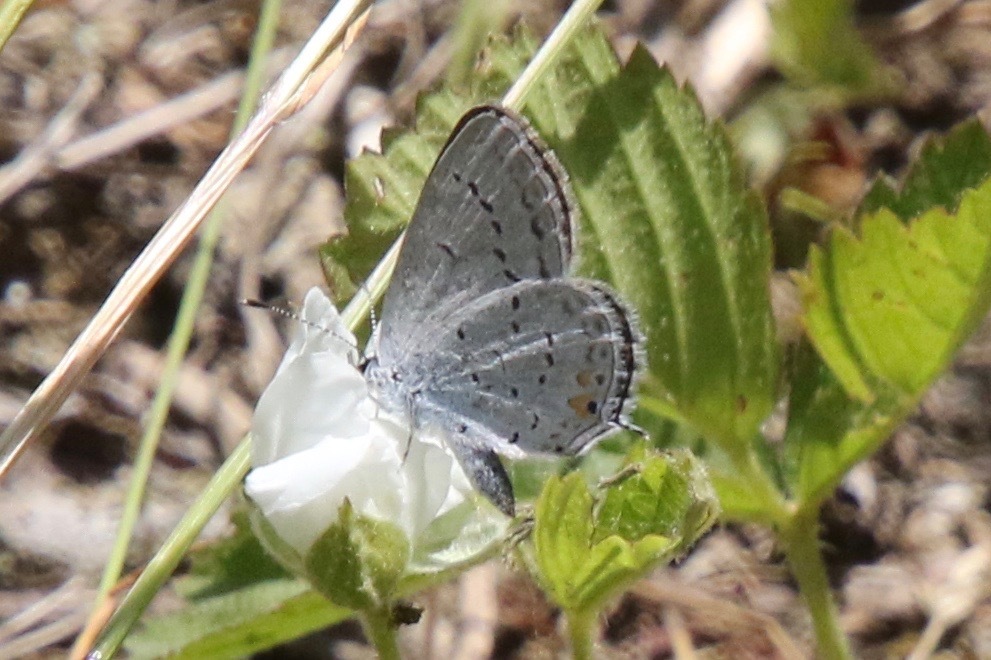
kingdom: Animalia
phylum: Arthropoda
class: Insecta
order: Lepidoptera
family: Lycaenidae
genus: Elkalyce
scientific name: Elkalyce comyntas
